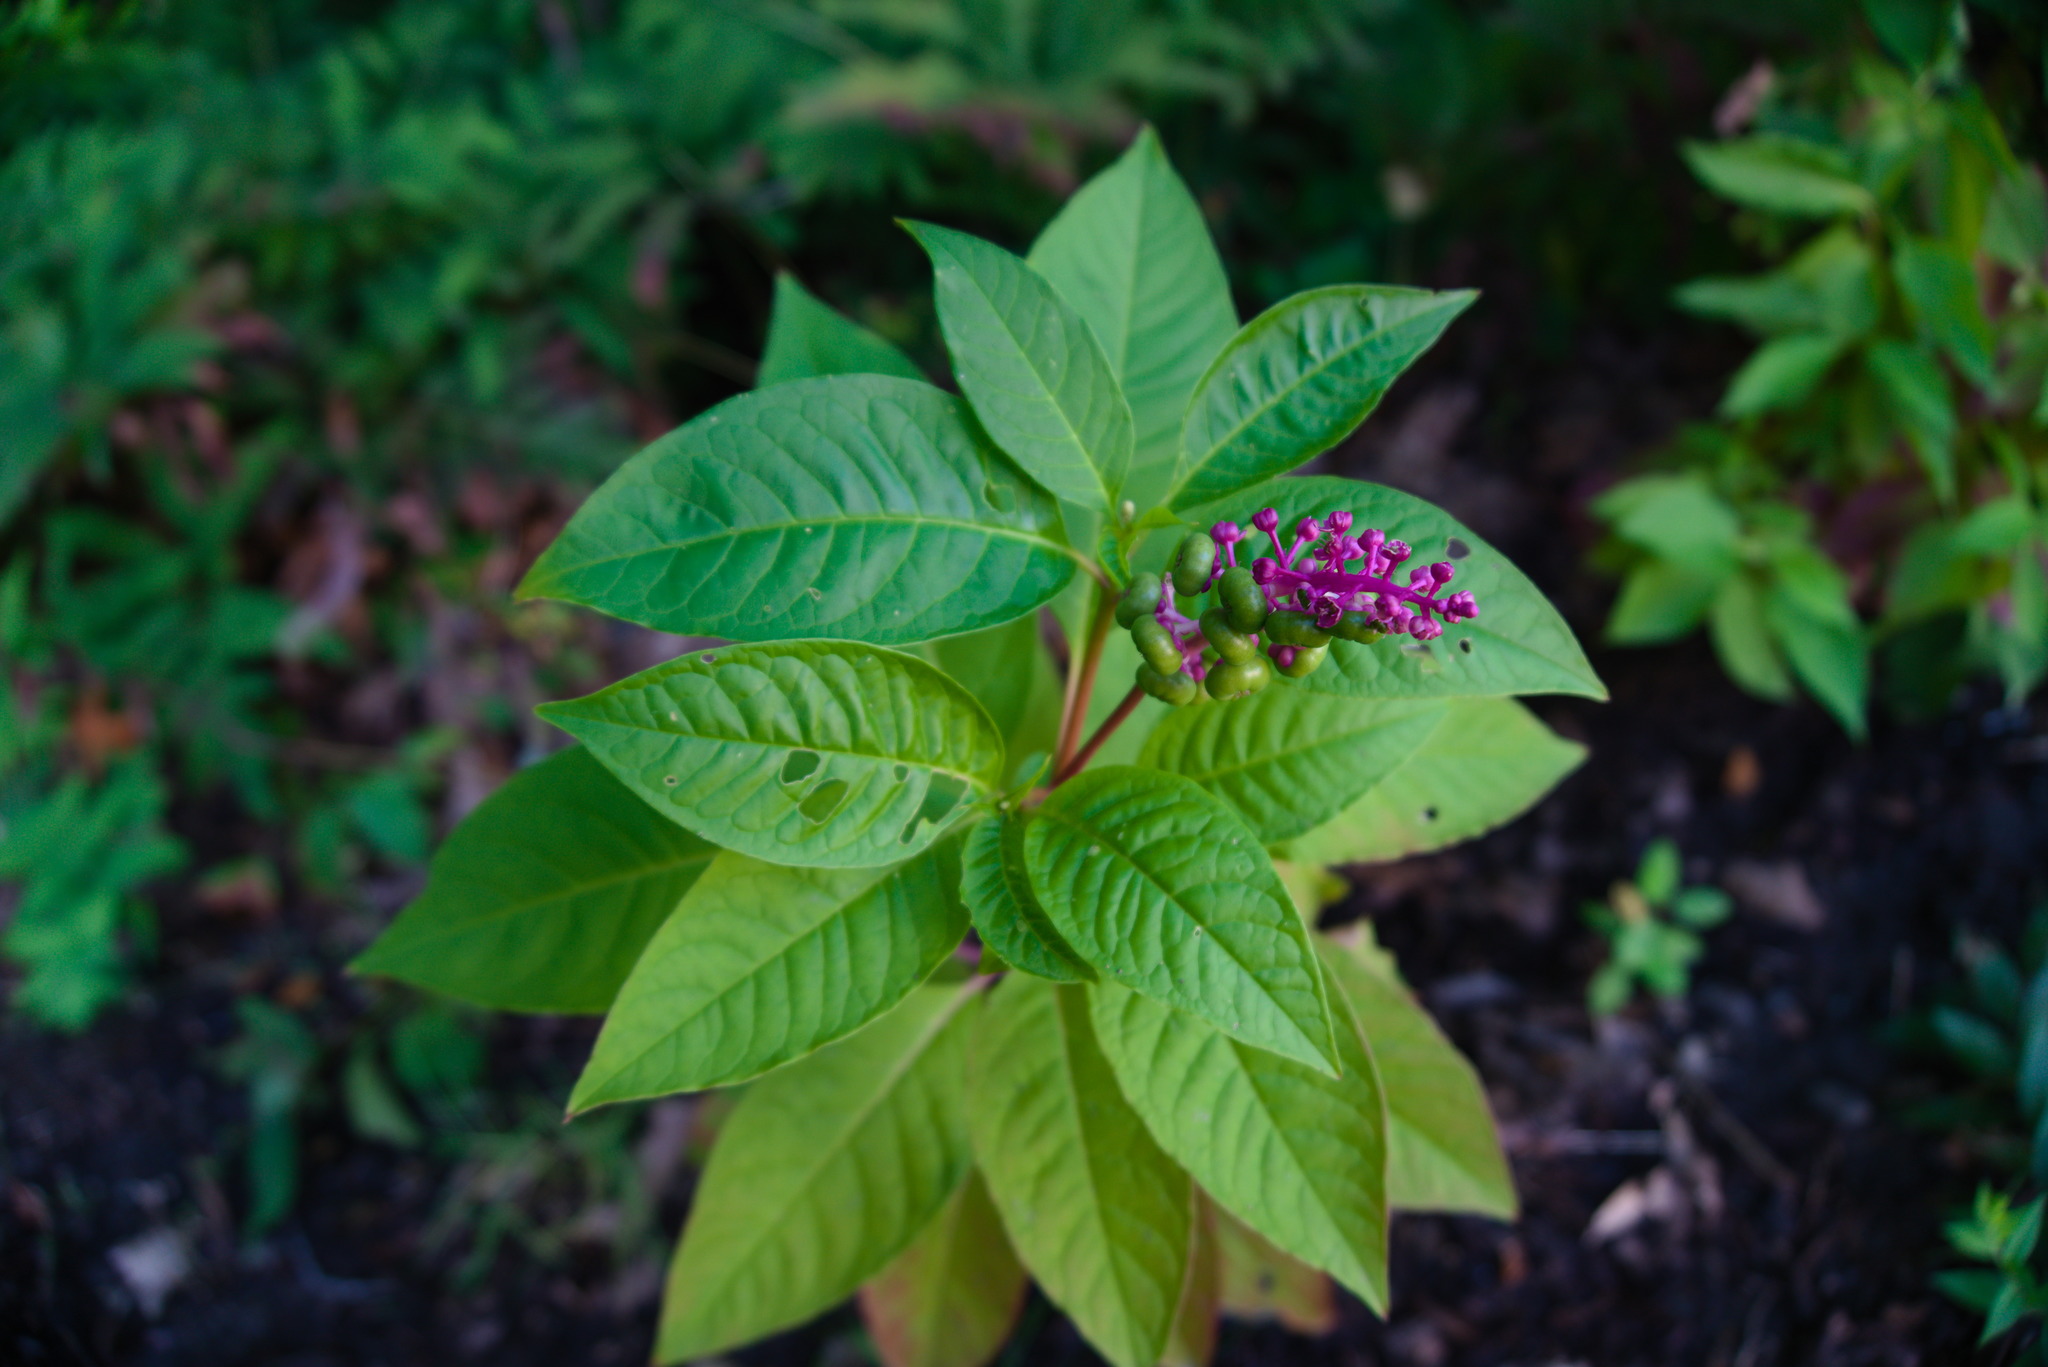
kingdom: Plantae
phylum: Tracheophyta
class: Magnoliopsida
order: Caryophyllales
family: Phytolaccaceae
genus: Phytolacca
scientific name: Phytolacca americana
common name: American pokeweed
